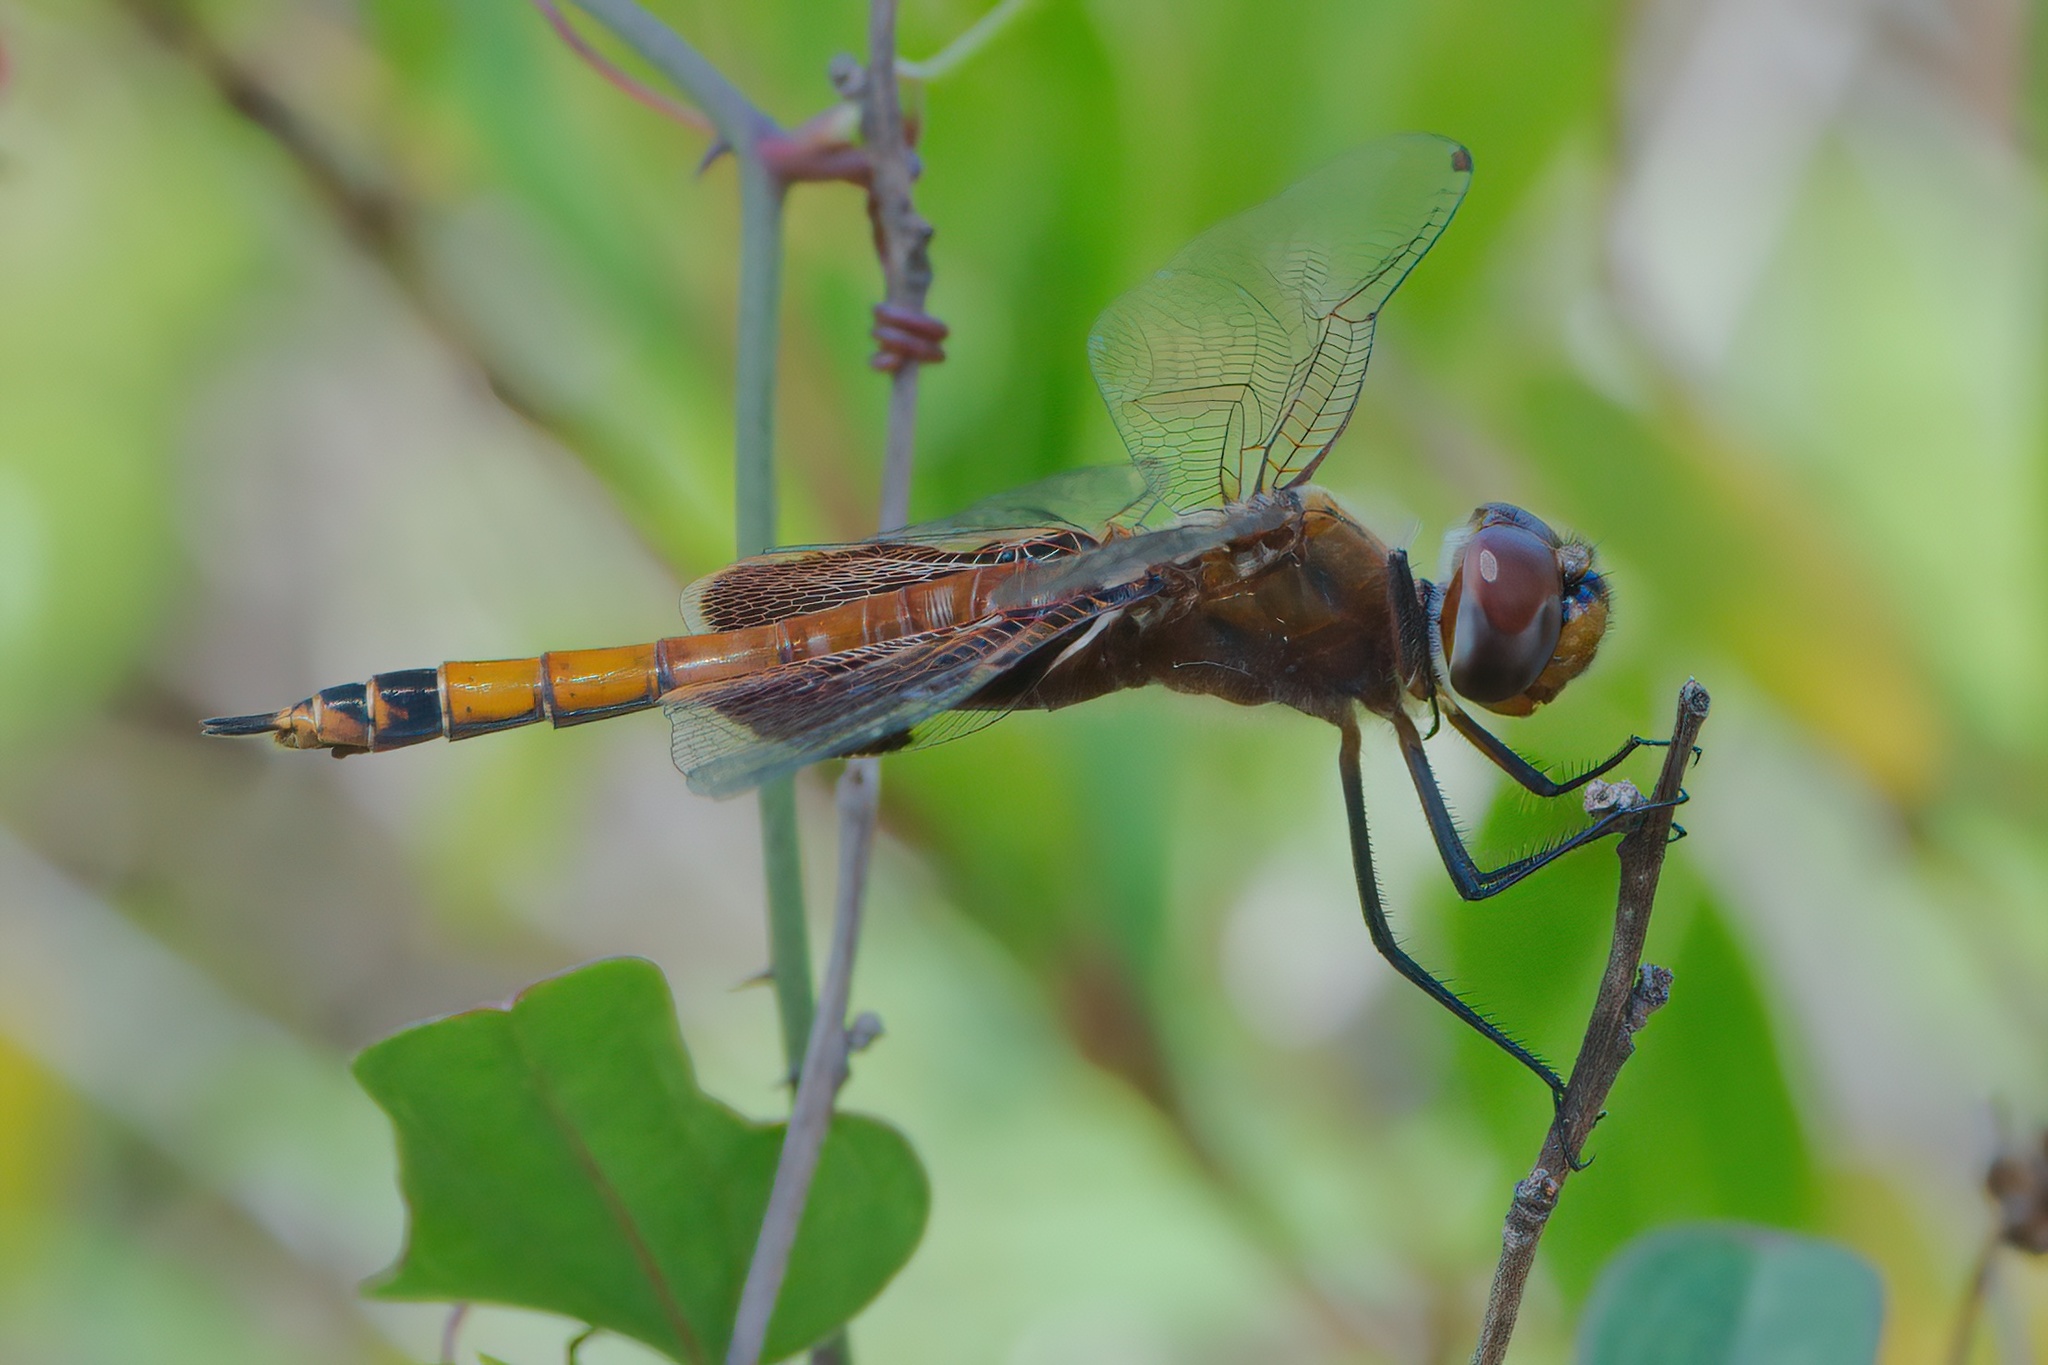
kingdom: Animalia
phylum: Arthropoda
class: Insecta
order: Odonata
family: Libellulidae
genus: Tramea
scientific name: Tramea carolina
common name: Carolina saddlebags
